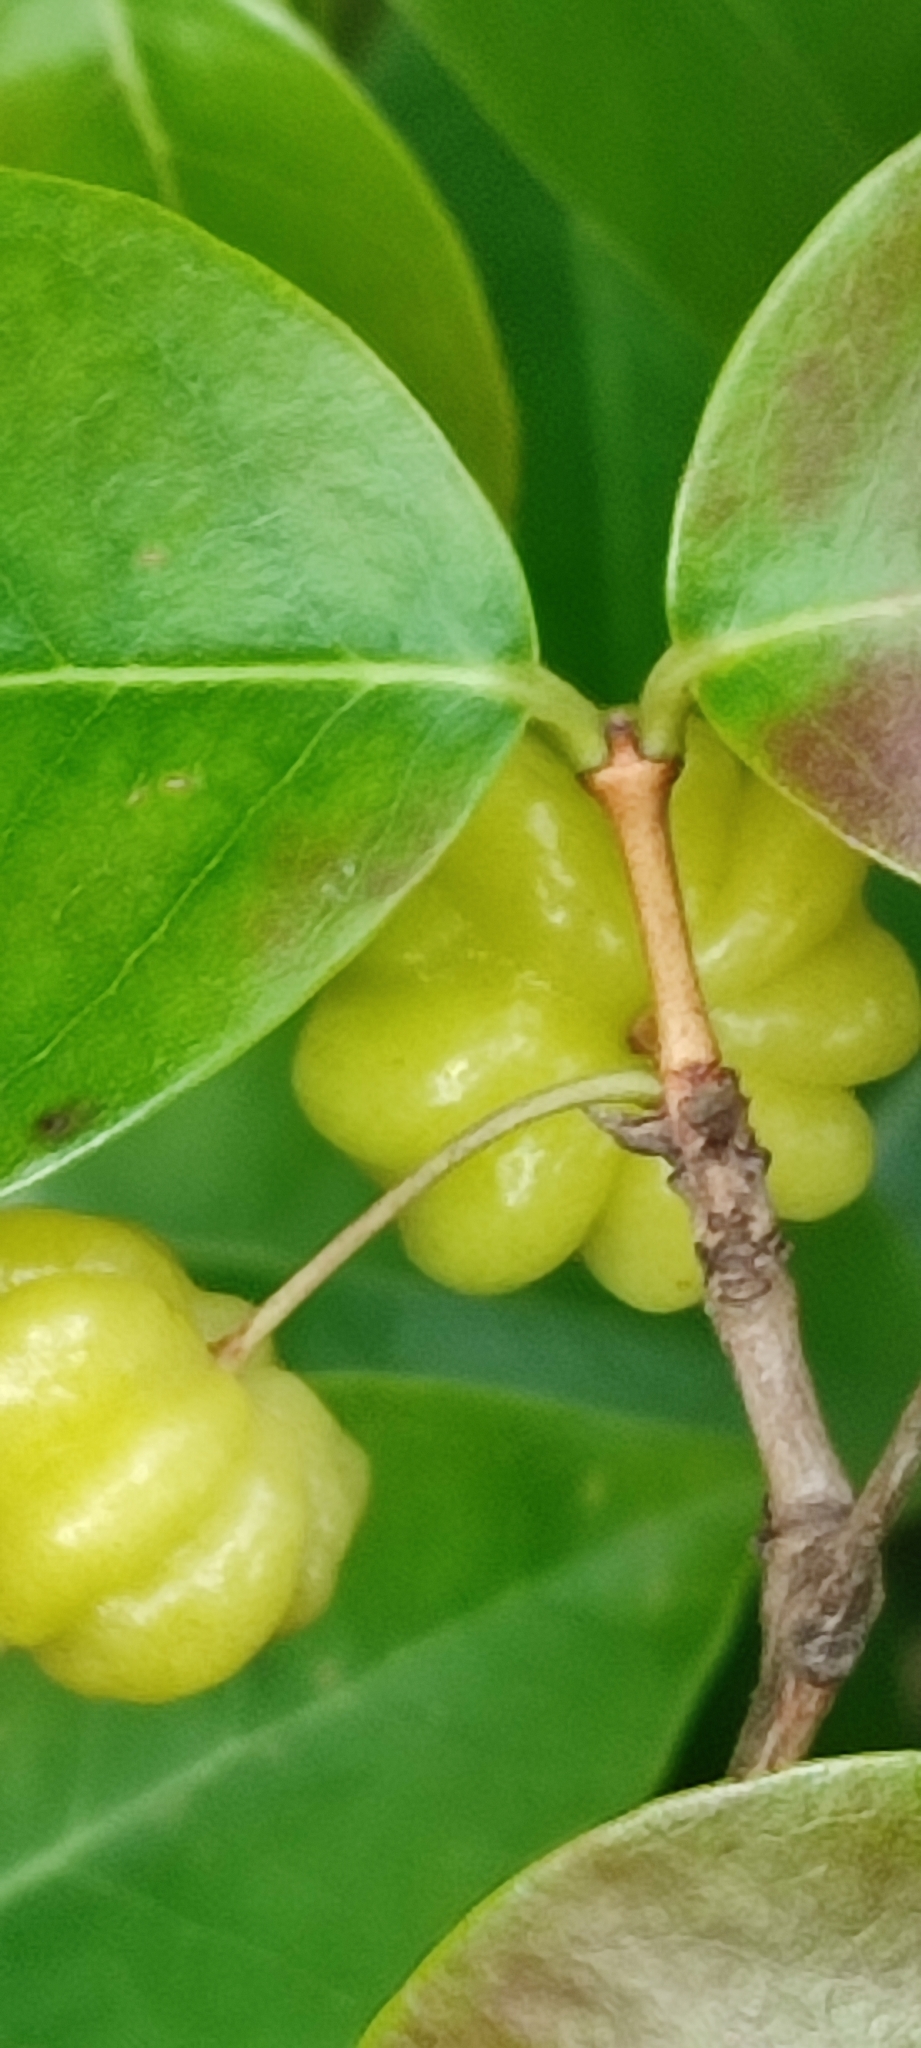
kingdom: Plantae
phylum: Tracheophyta
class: Magnoliopsida
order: Myrtales
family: Myrtaceae
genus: Eugenia
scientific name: Eugenia uniflora
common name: Surinam cherry
